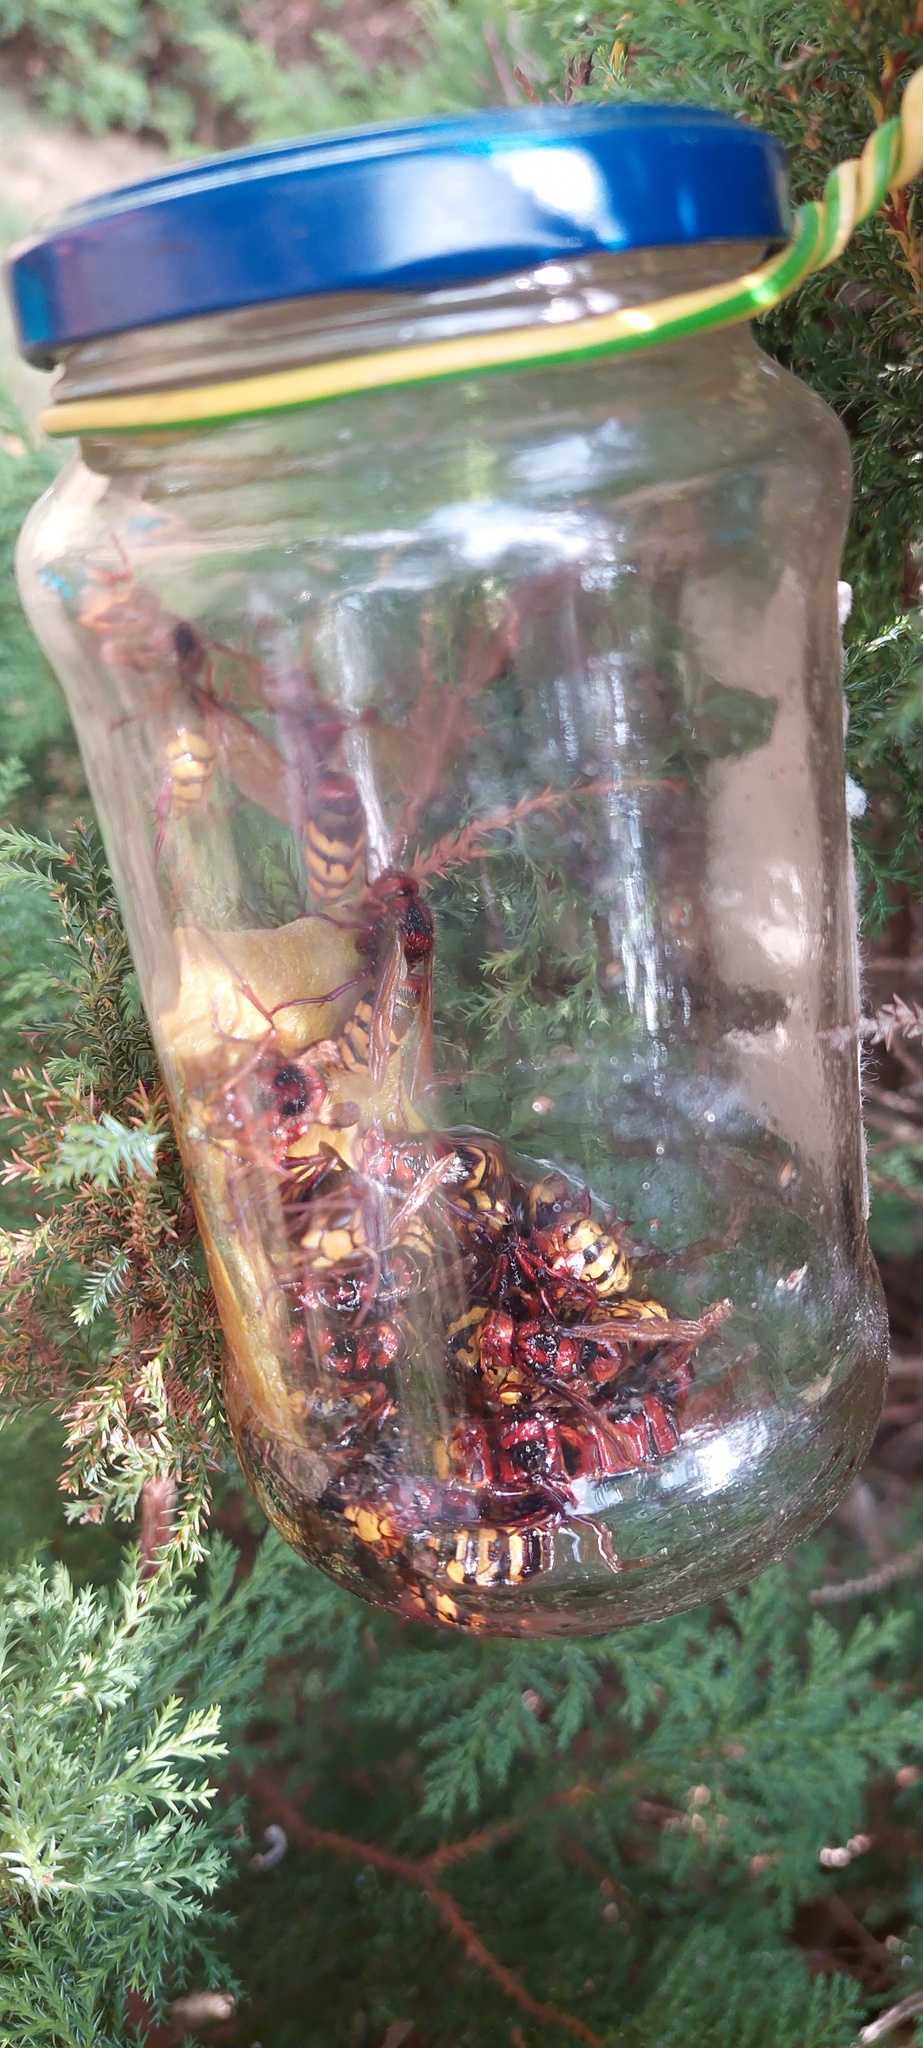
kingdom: Animalia
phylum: Arthropoda
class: Insecta
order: Hymenoptera
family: Vespidae
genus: Vespa
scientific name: Vespa crabro
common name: Hornet
